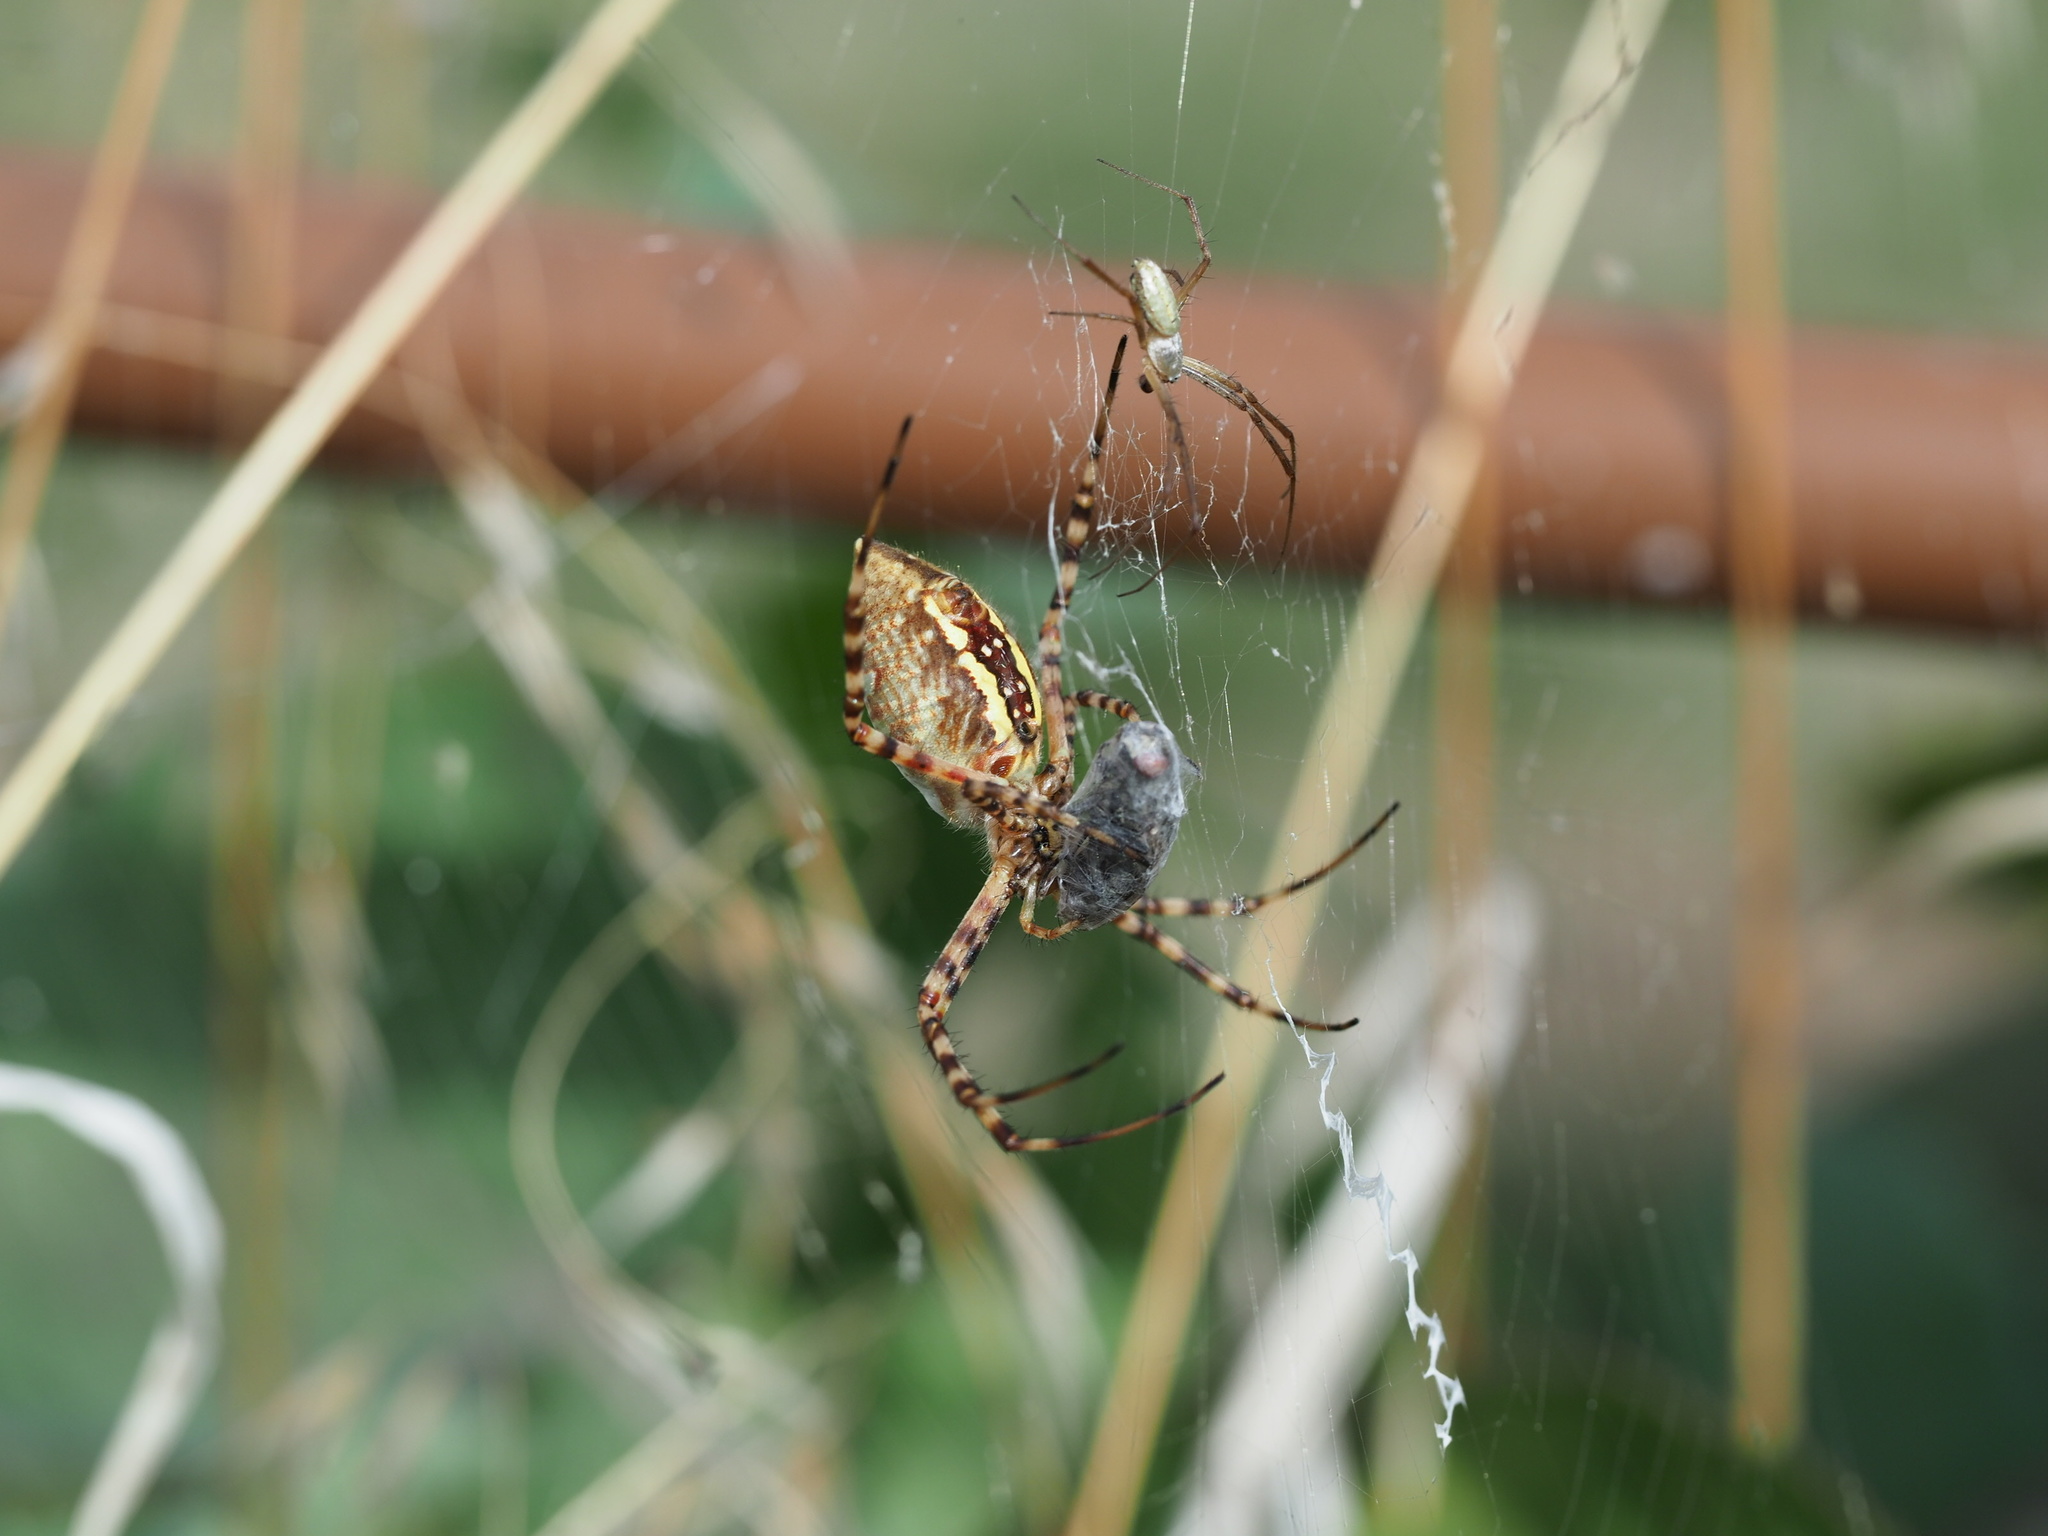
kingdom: Animalia
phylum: Arthropoda
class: Arachnida
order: Araneae
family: Araneidae
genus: Argiope
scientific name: Argiope trifasciata
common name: Banded garden spider
